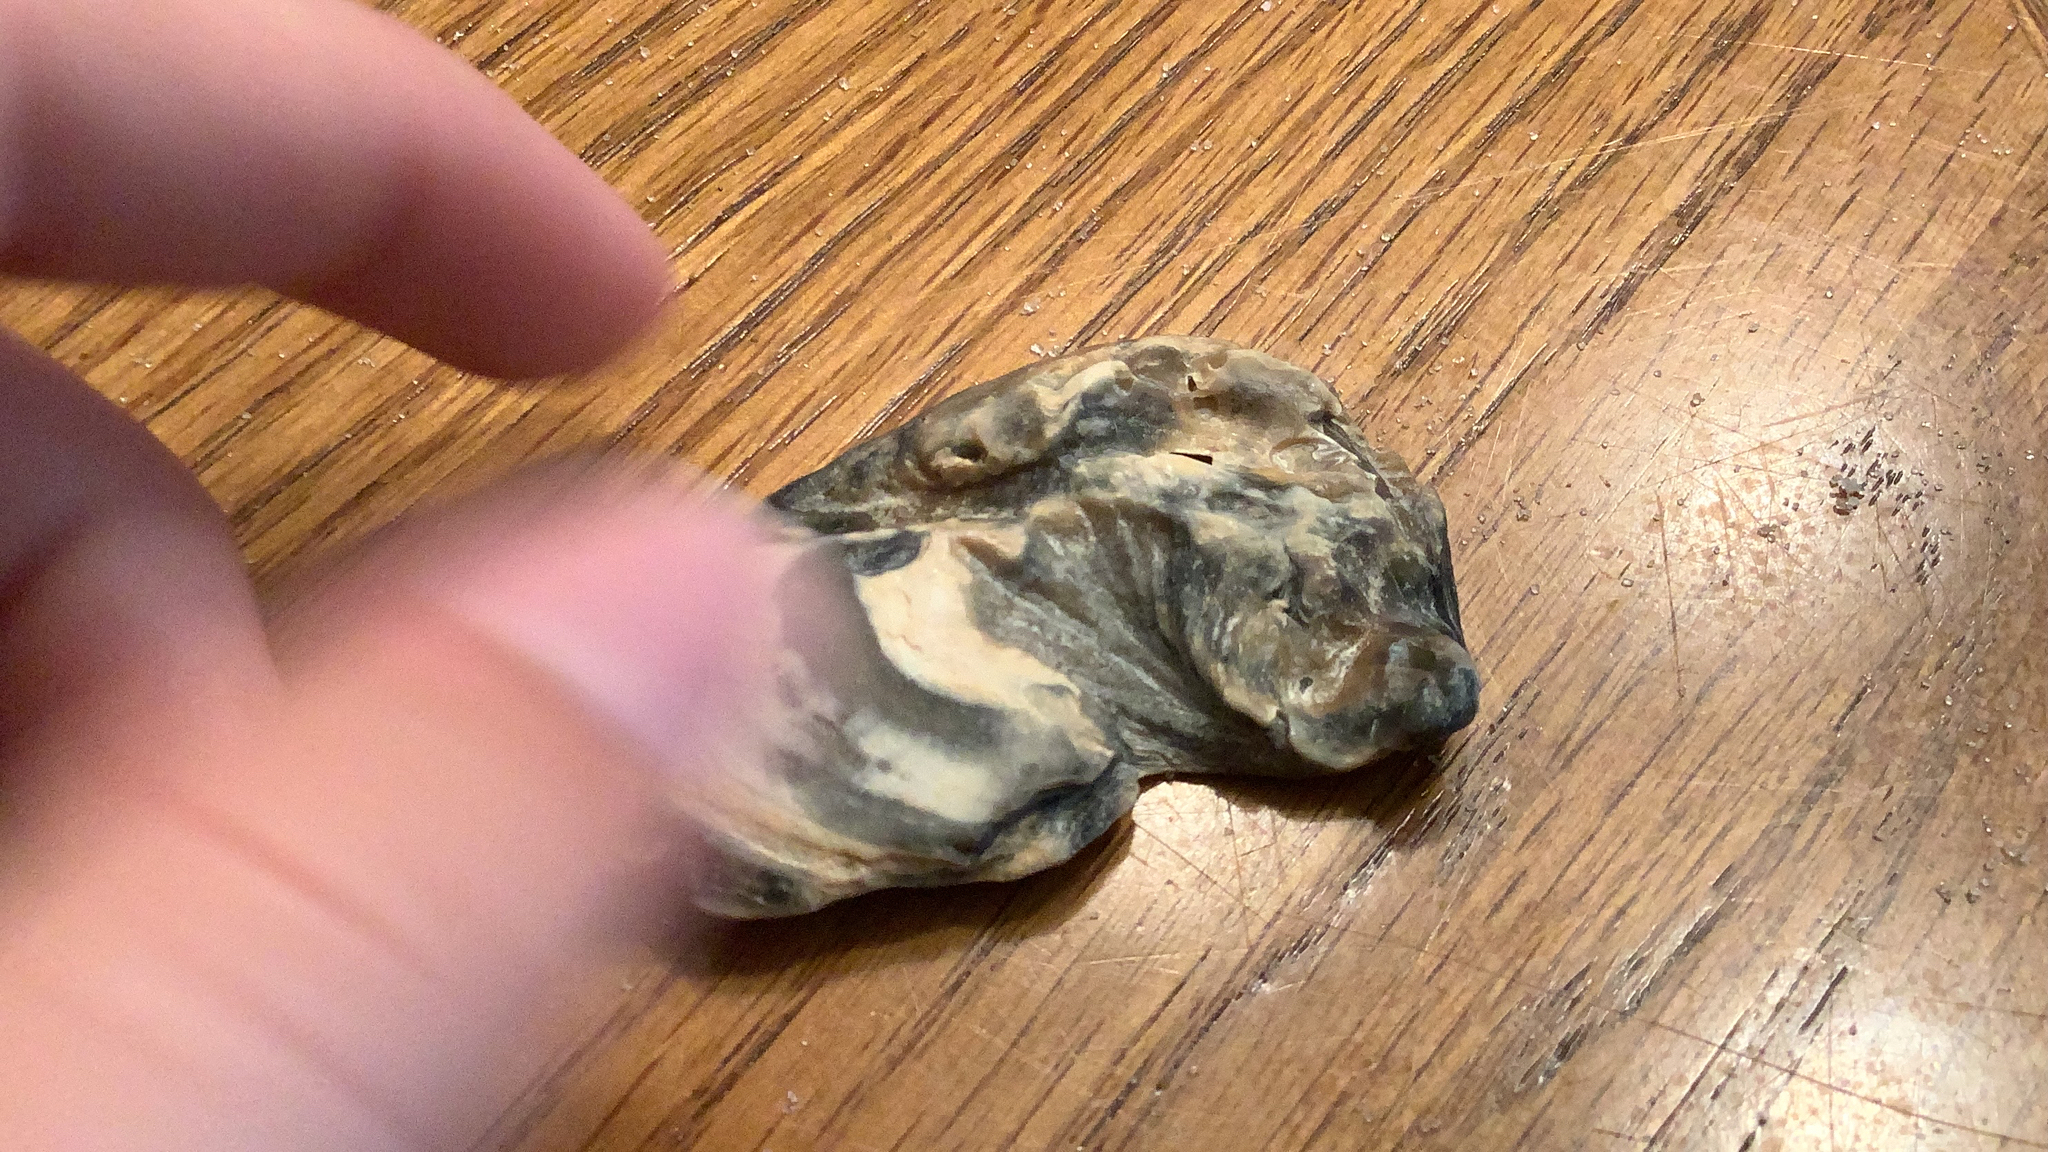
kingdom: Animalia
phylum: Mollusca
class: Bivalvia
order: Ostreida
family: Ostreidae
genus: Crassostrea
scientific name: Crassostrea virginica
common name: American oyster
